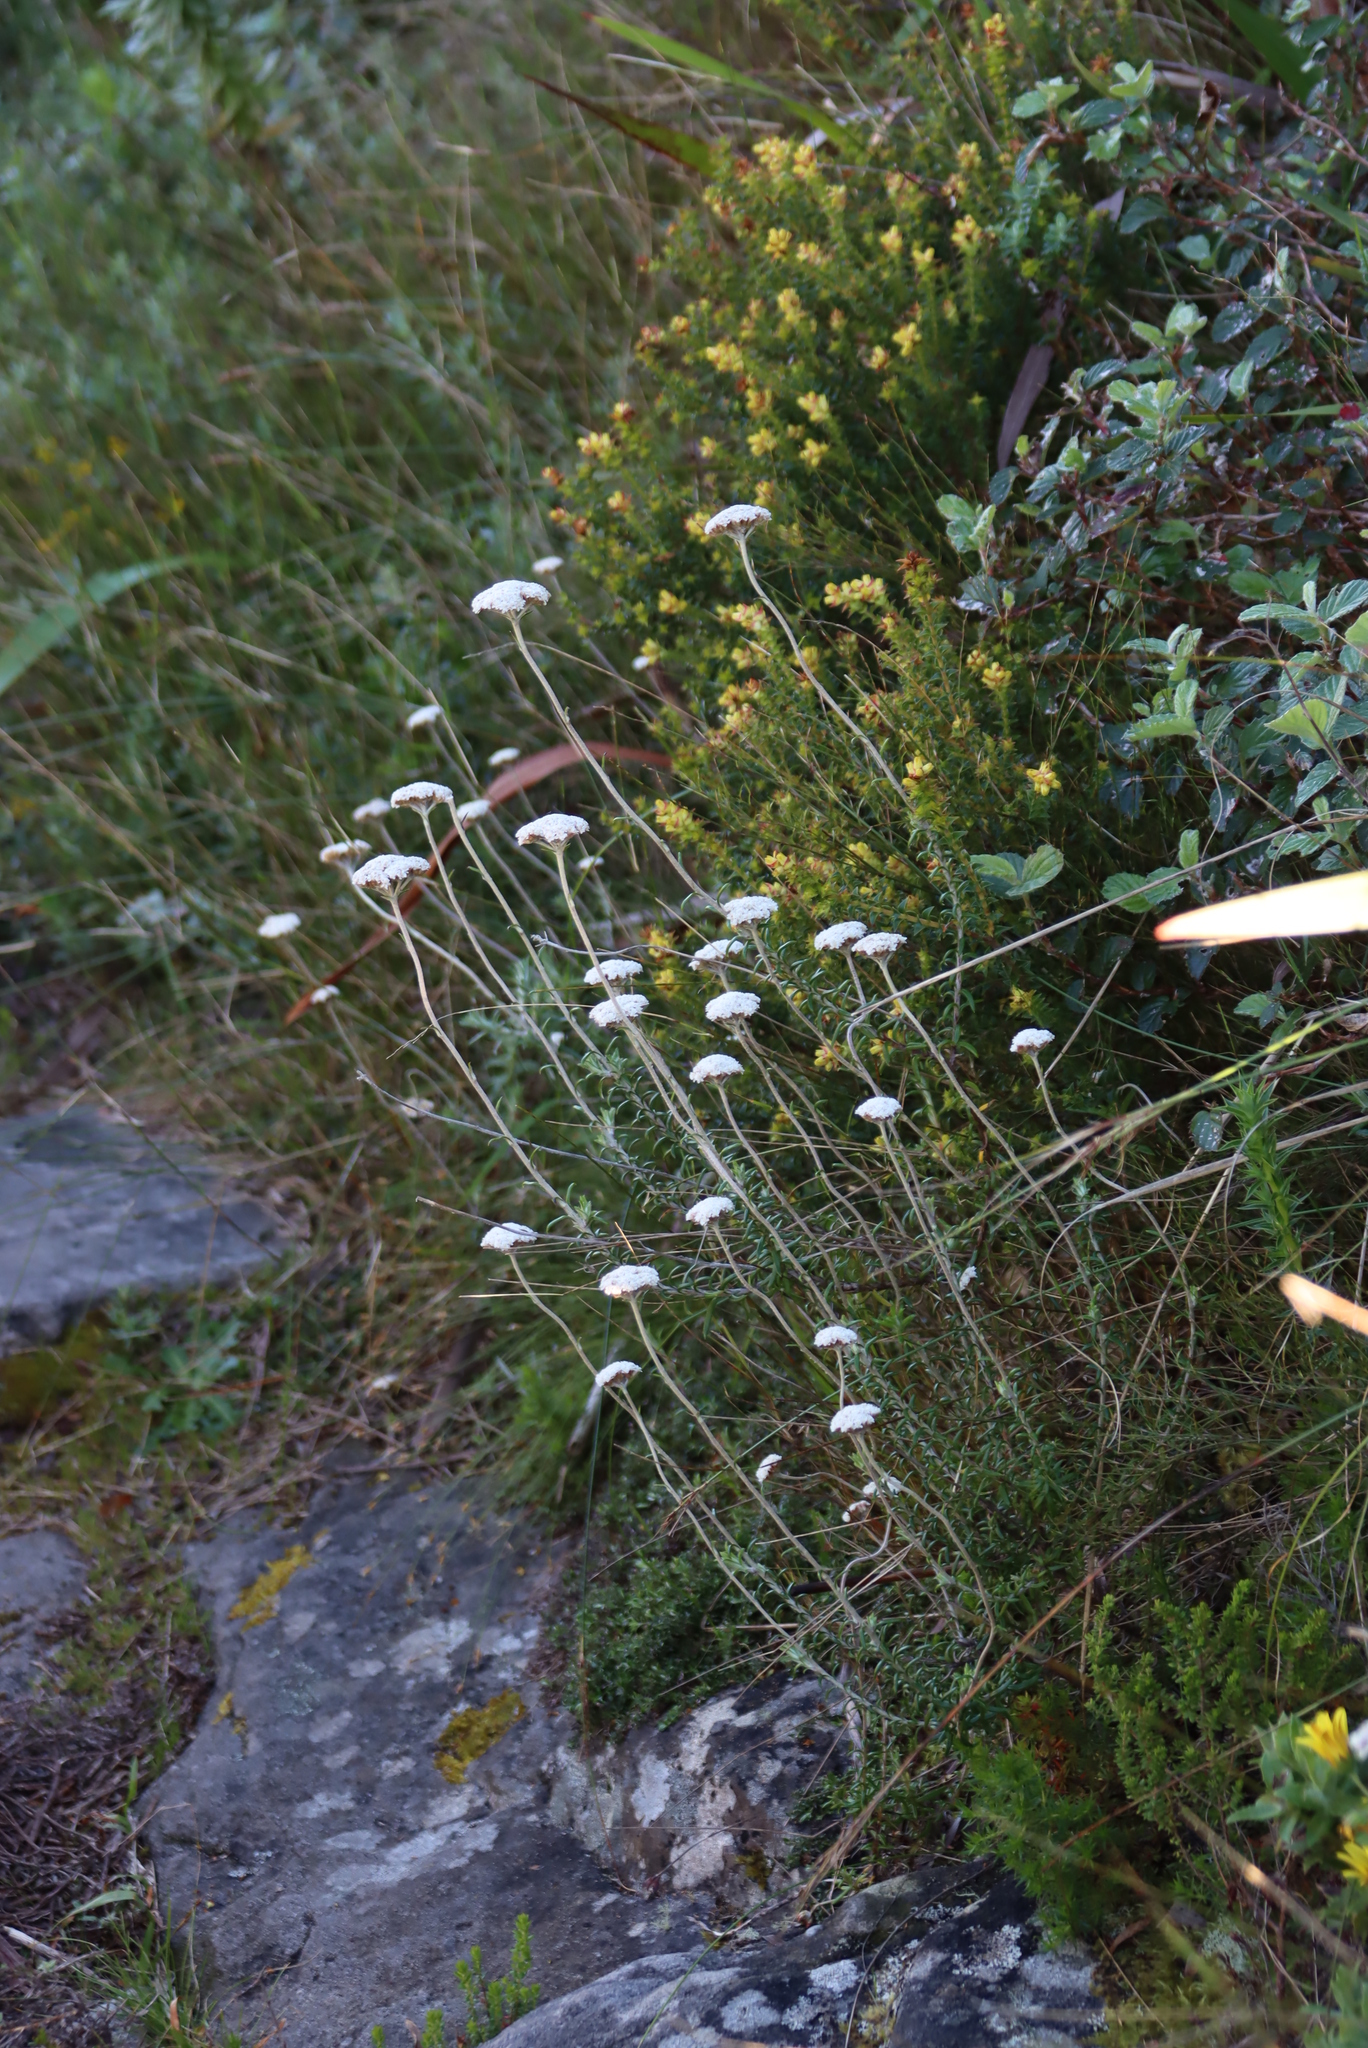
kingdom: Plantae
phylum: Tracheophyta
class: Magnoliopsida
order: Asterales
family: Asteraceae
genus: Anaxeton
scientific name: Anaxeton arborescens
